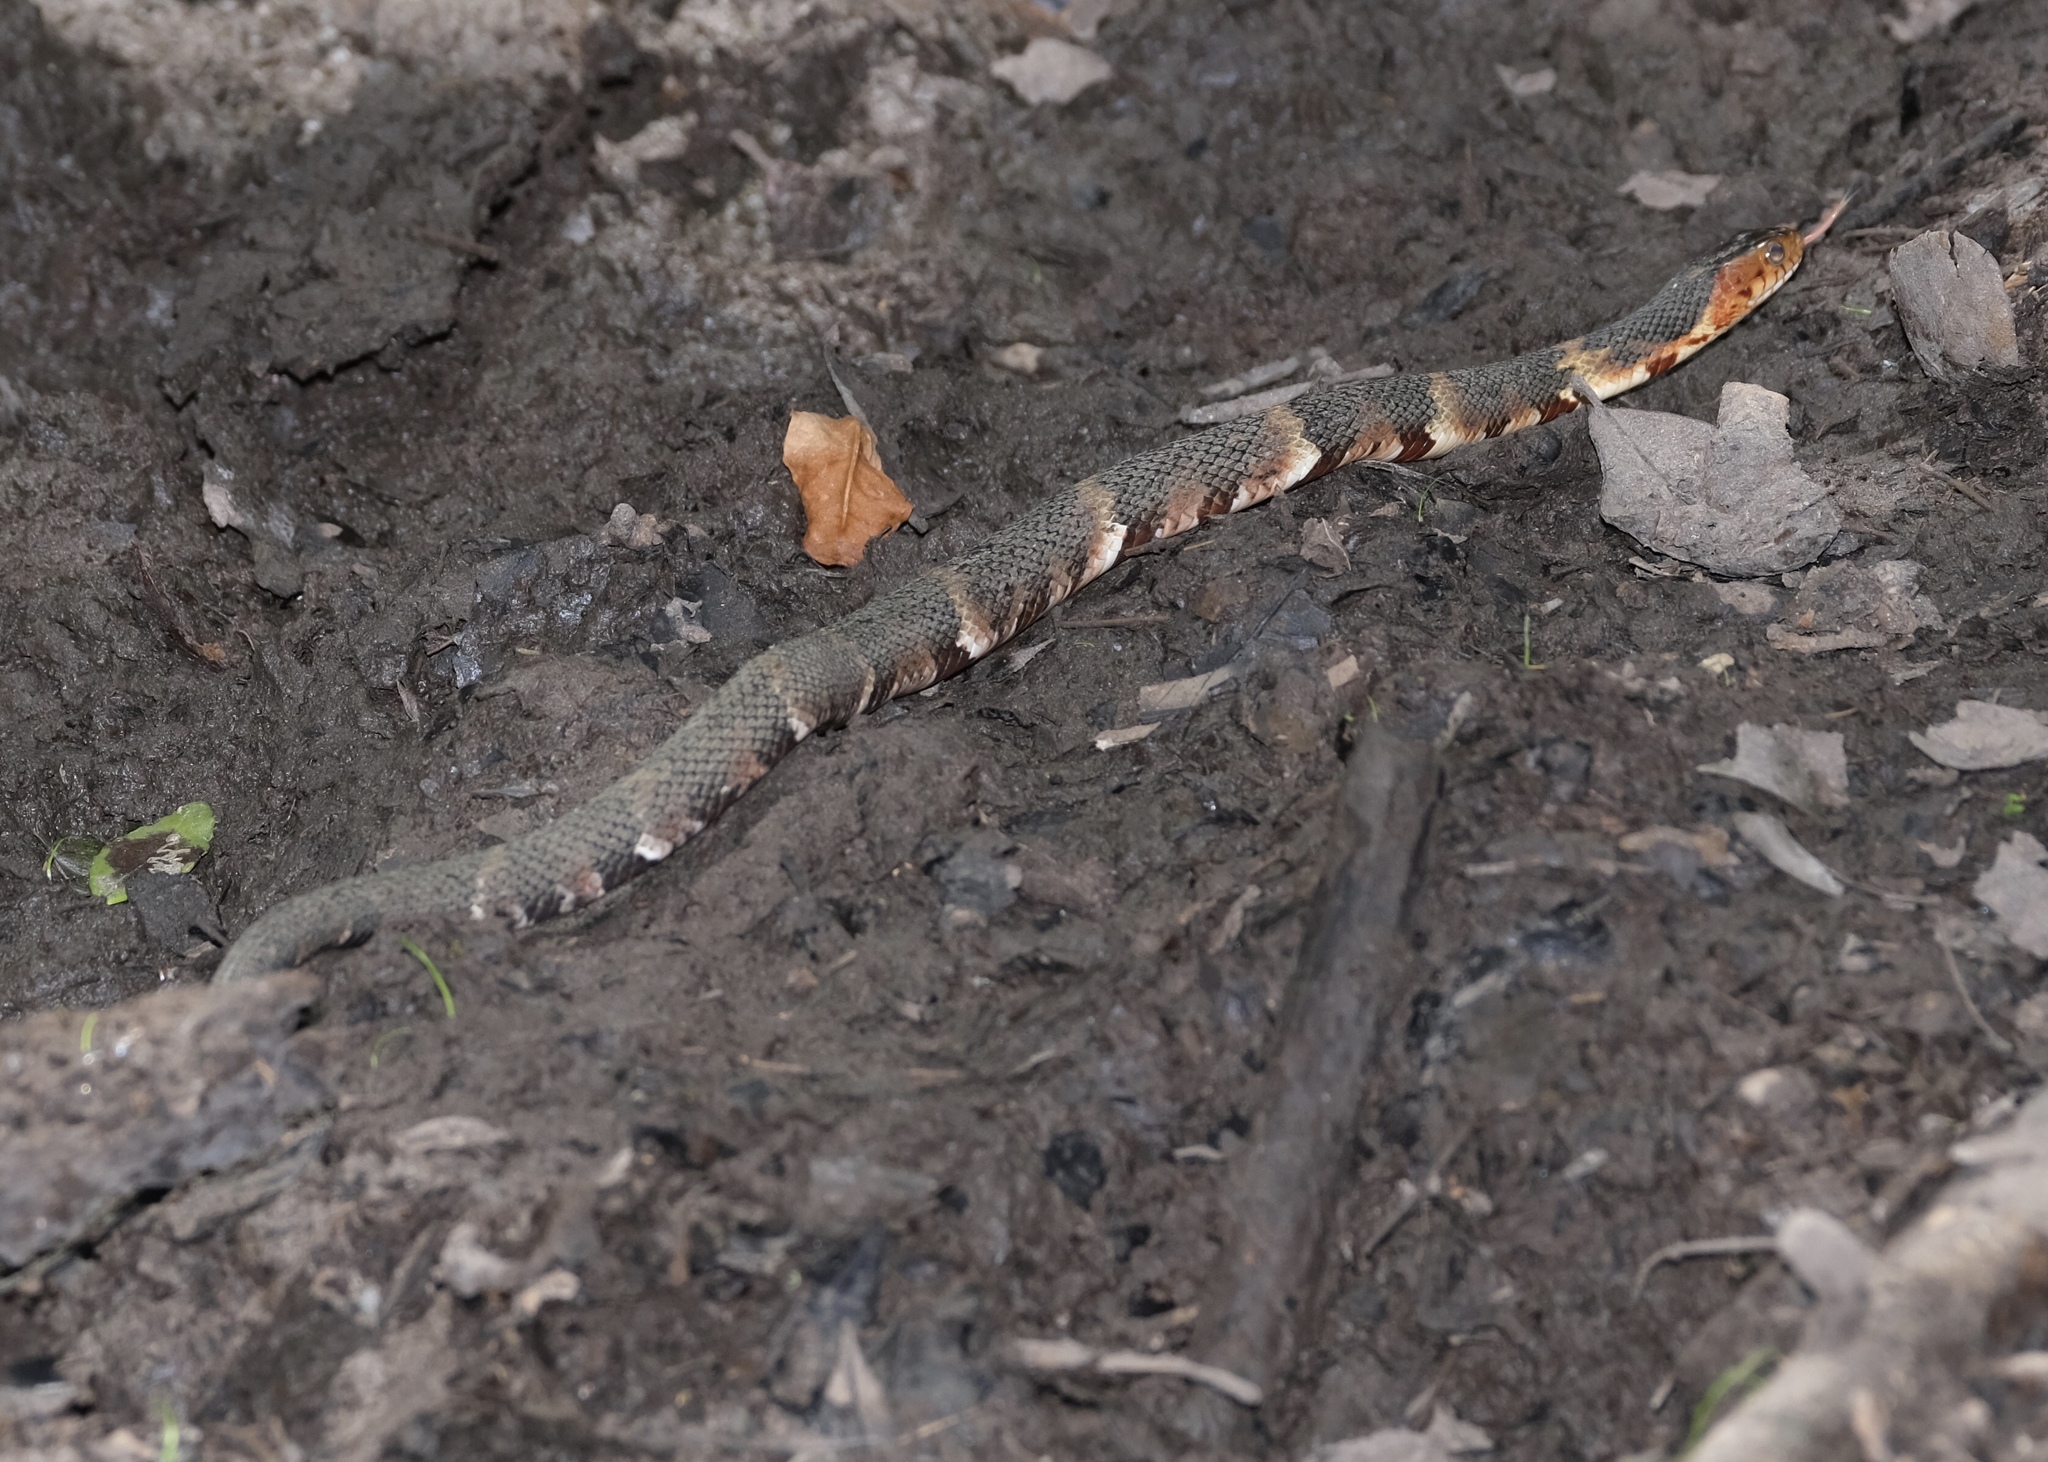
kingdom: Animalia
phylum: Chordata
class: Squamata
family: Colubridae
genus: Nerodia
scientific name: Nerodia fasciata
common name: Southern water snake
